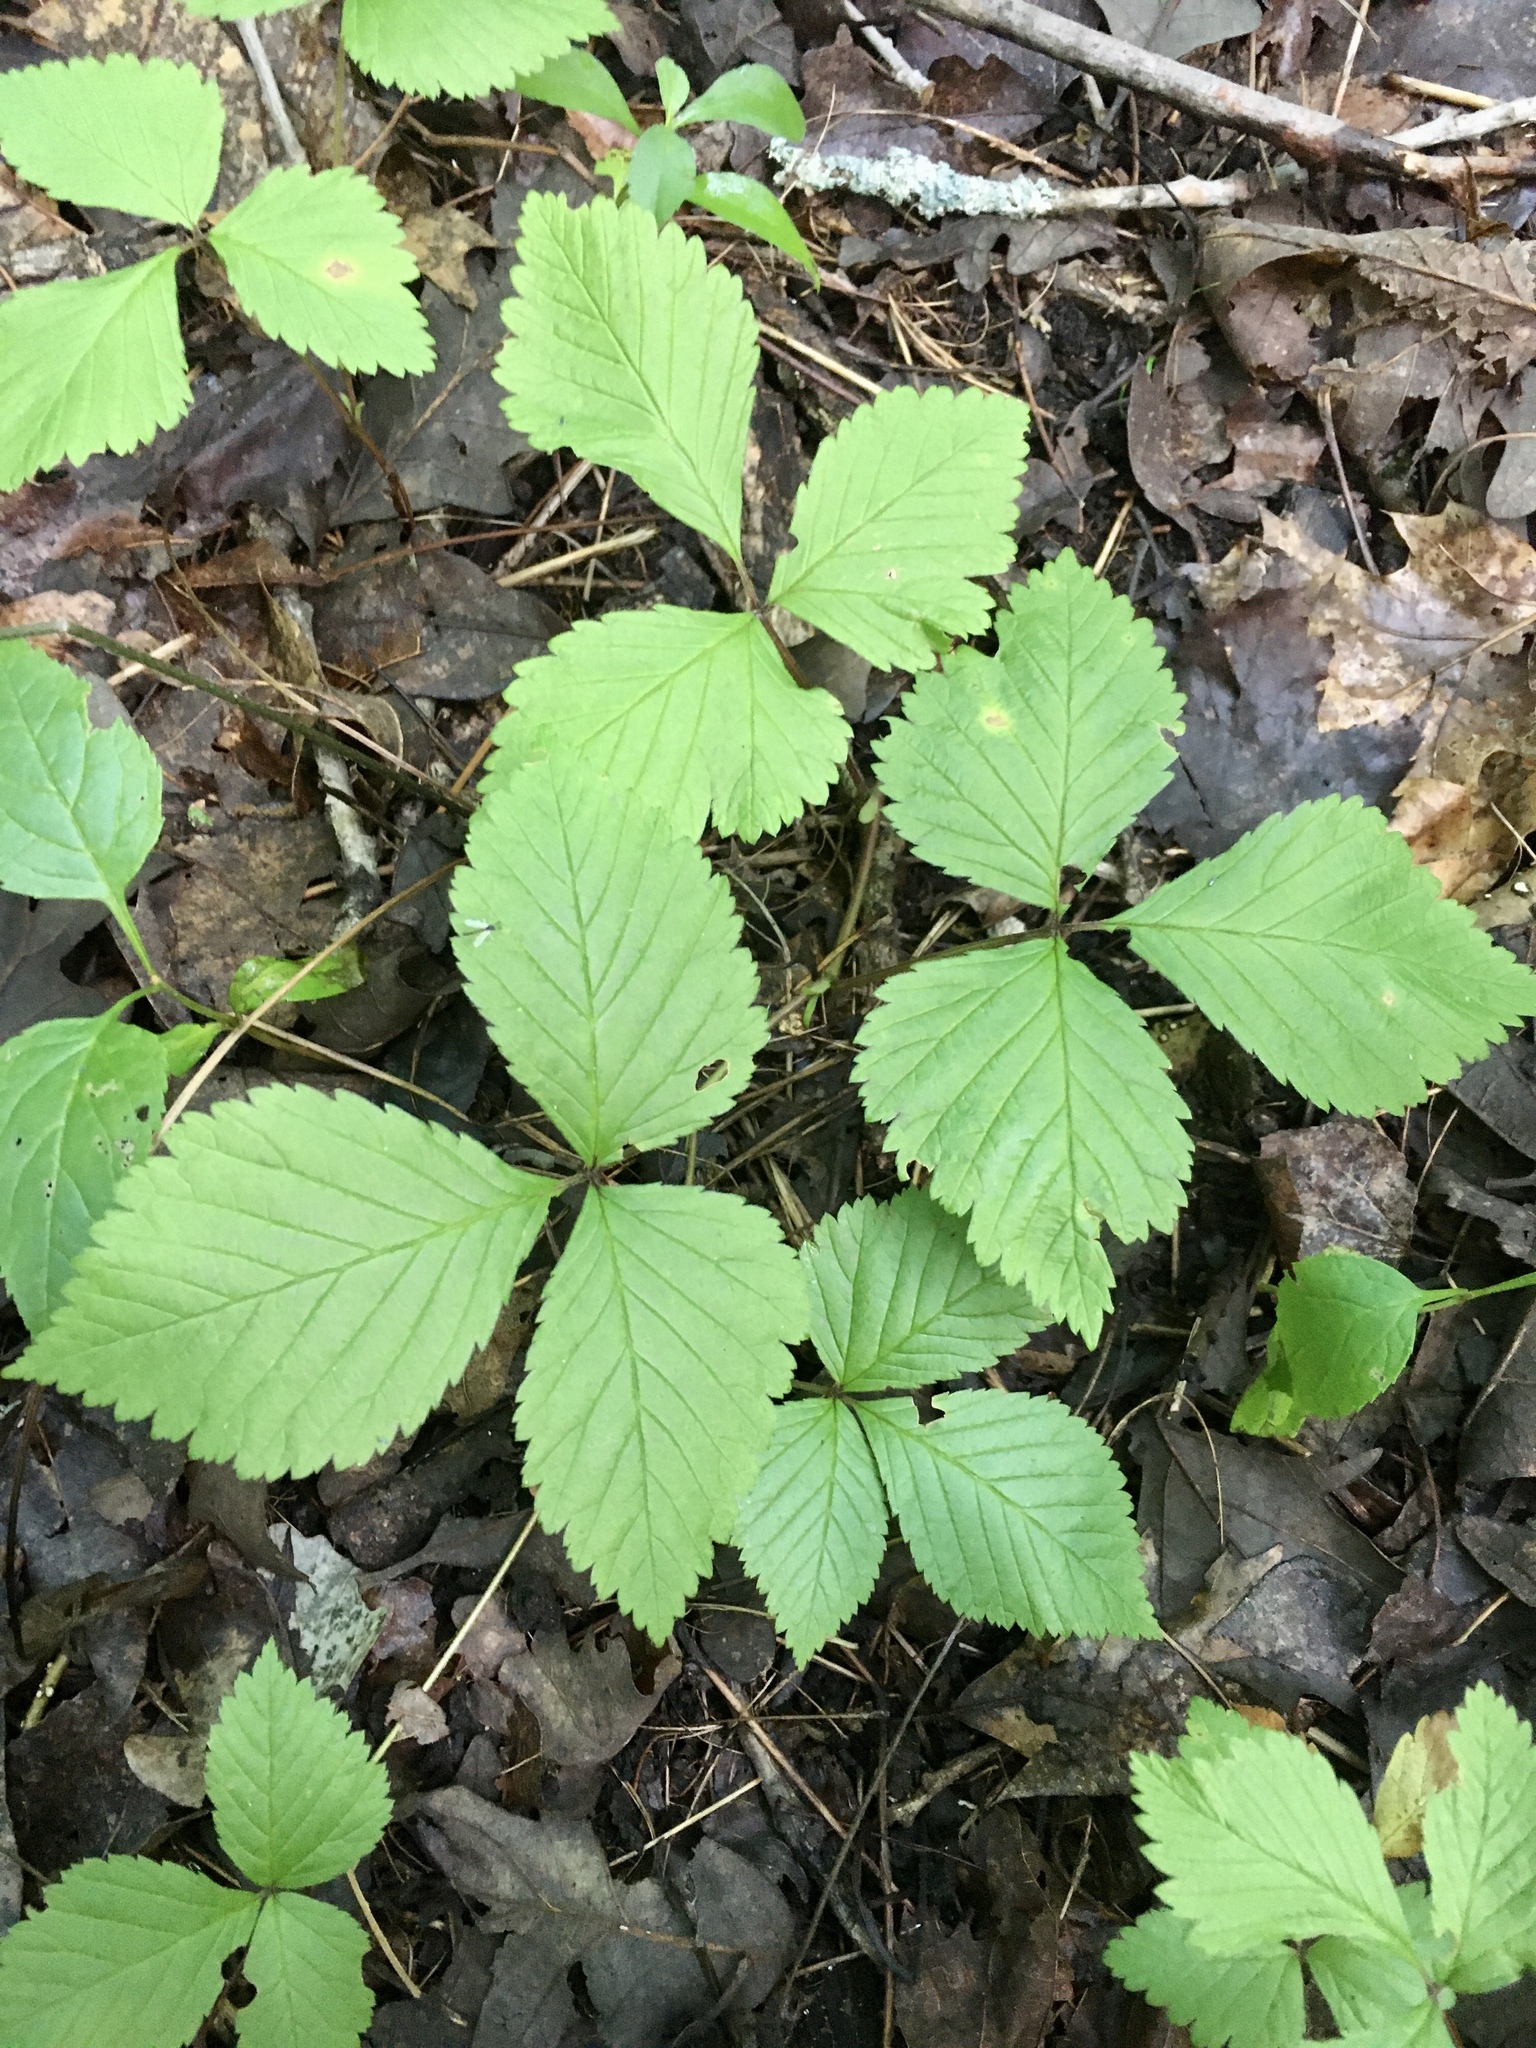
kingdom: Plantae
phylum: Tracheophyta
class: Magnoliopsida
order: Rosales
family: Rosaceae
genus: Rubus
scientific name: Rubus pubescens
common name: Dwarf raspberry
